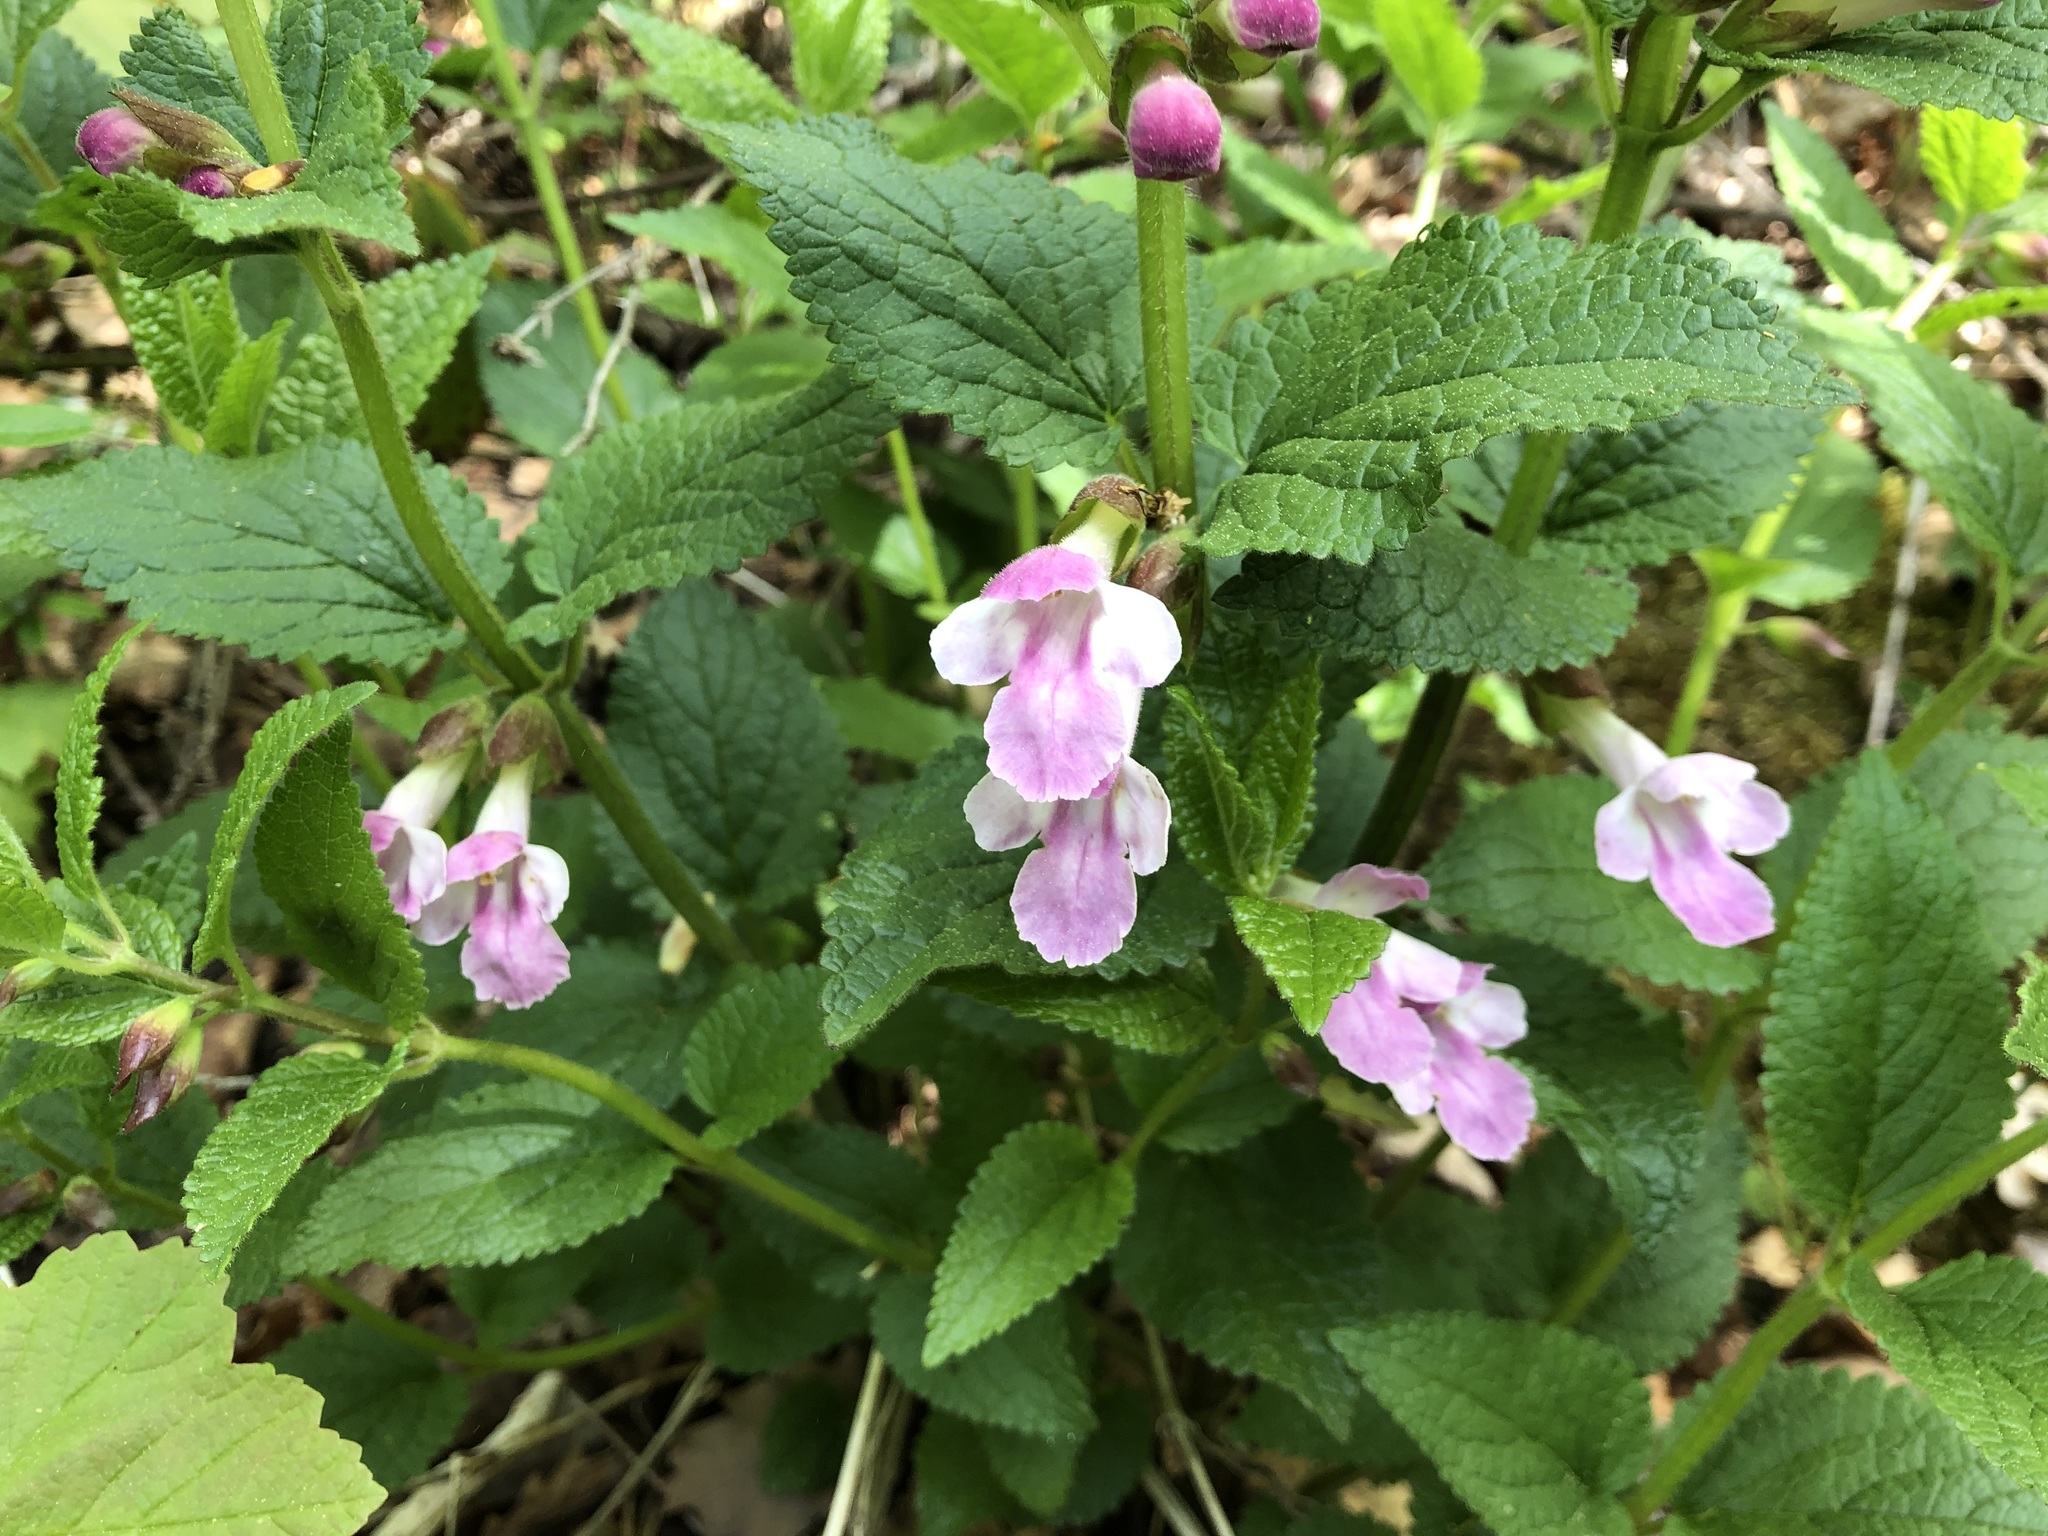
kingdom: Plantae
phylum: Tracheophyta
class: Magnoliopsida
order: Lamiales
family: Lamiaceae
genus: Melittis
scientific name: Melittis melissophyllum
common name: Bastard balm
